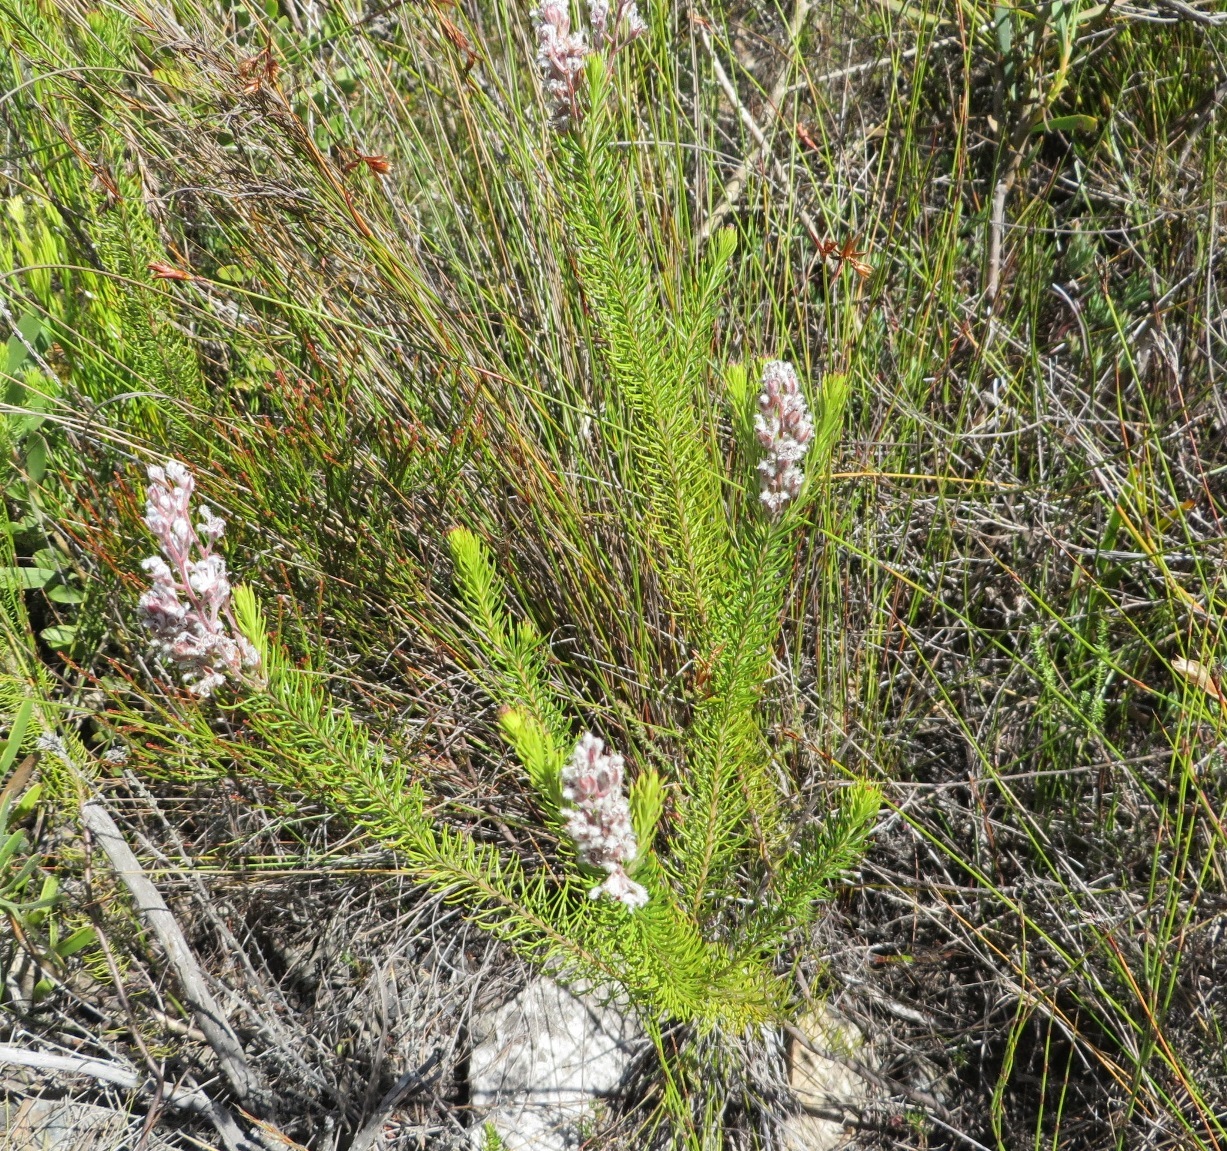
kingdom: Plantae
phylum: Tracheophyta
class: Magnoliopsida
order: Proteales
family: Proteaceae
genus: Spatalla
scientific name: Spatalla propinqua
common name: Lax spoon
